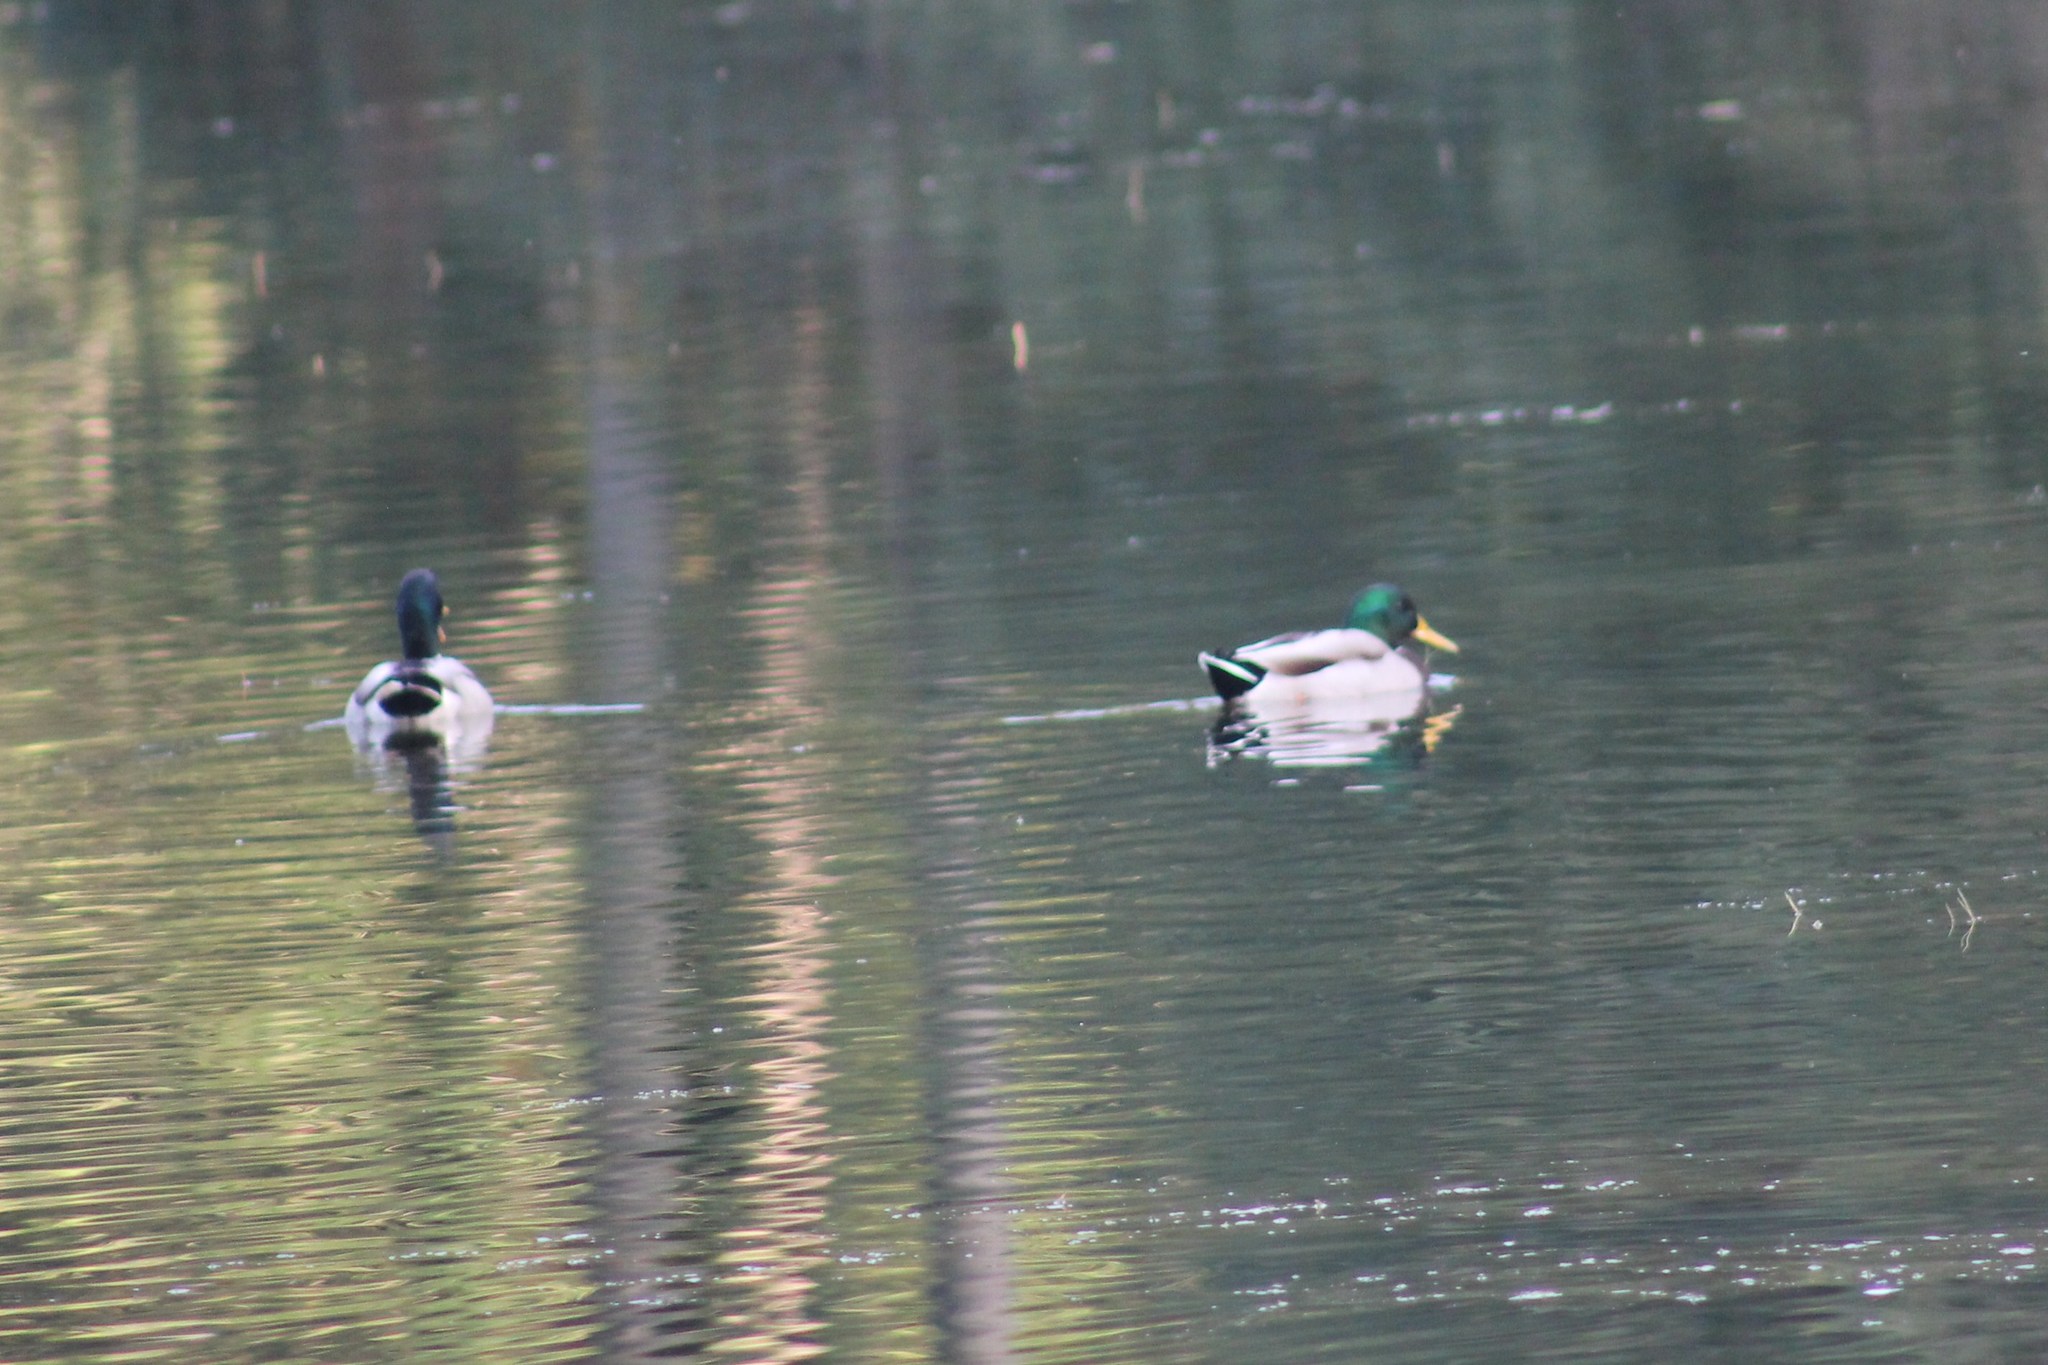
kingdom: Animalia
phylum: Chordata
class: Aves
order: Anseriformes
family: Anatidae
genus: Anas
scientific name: Anas platyrhynchos
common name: Mallard
